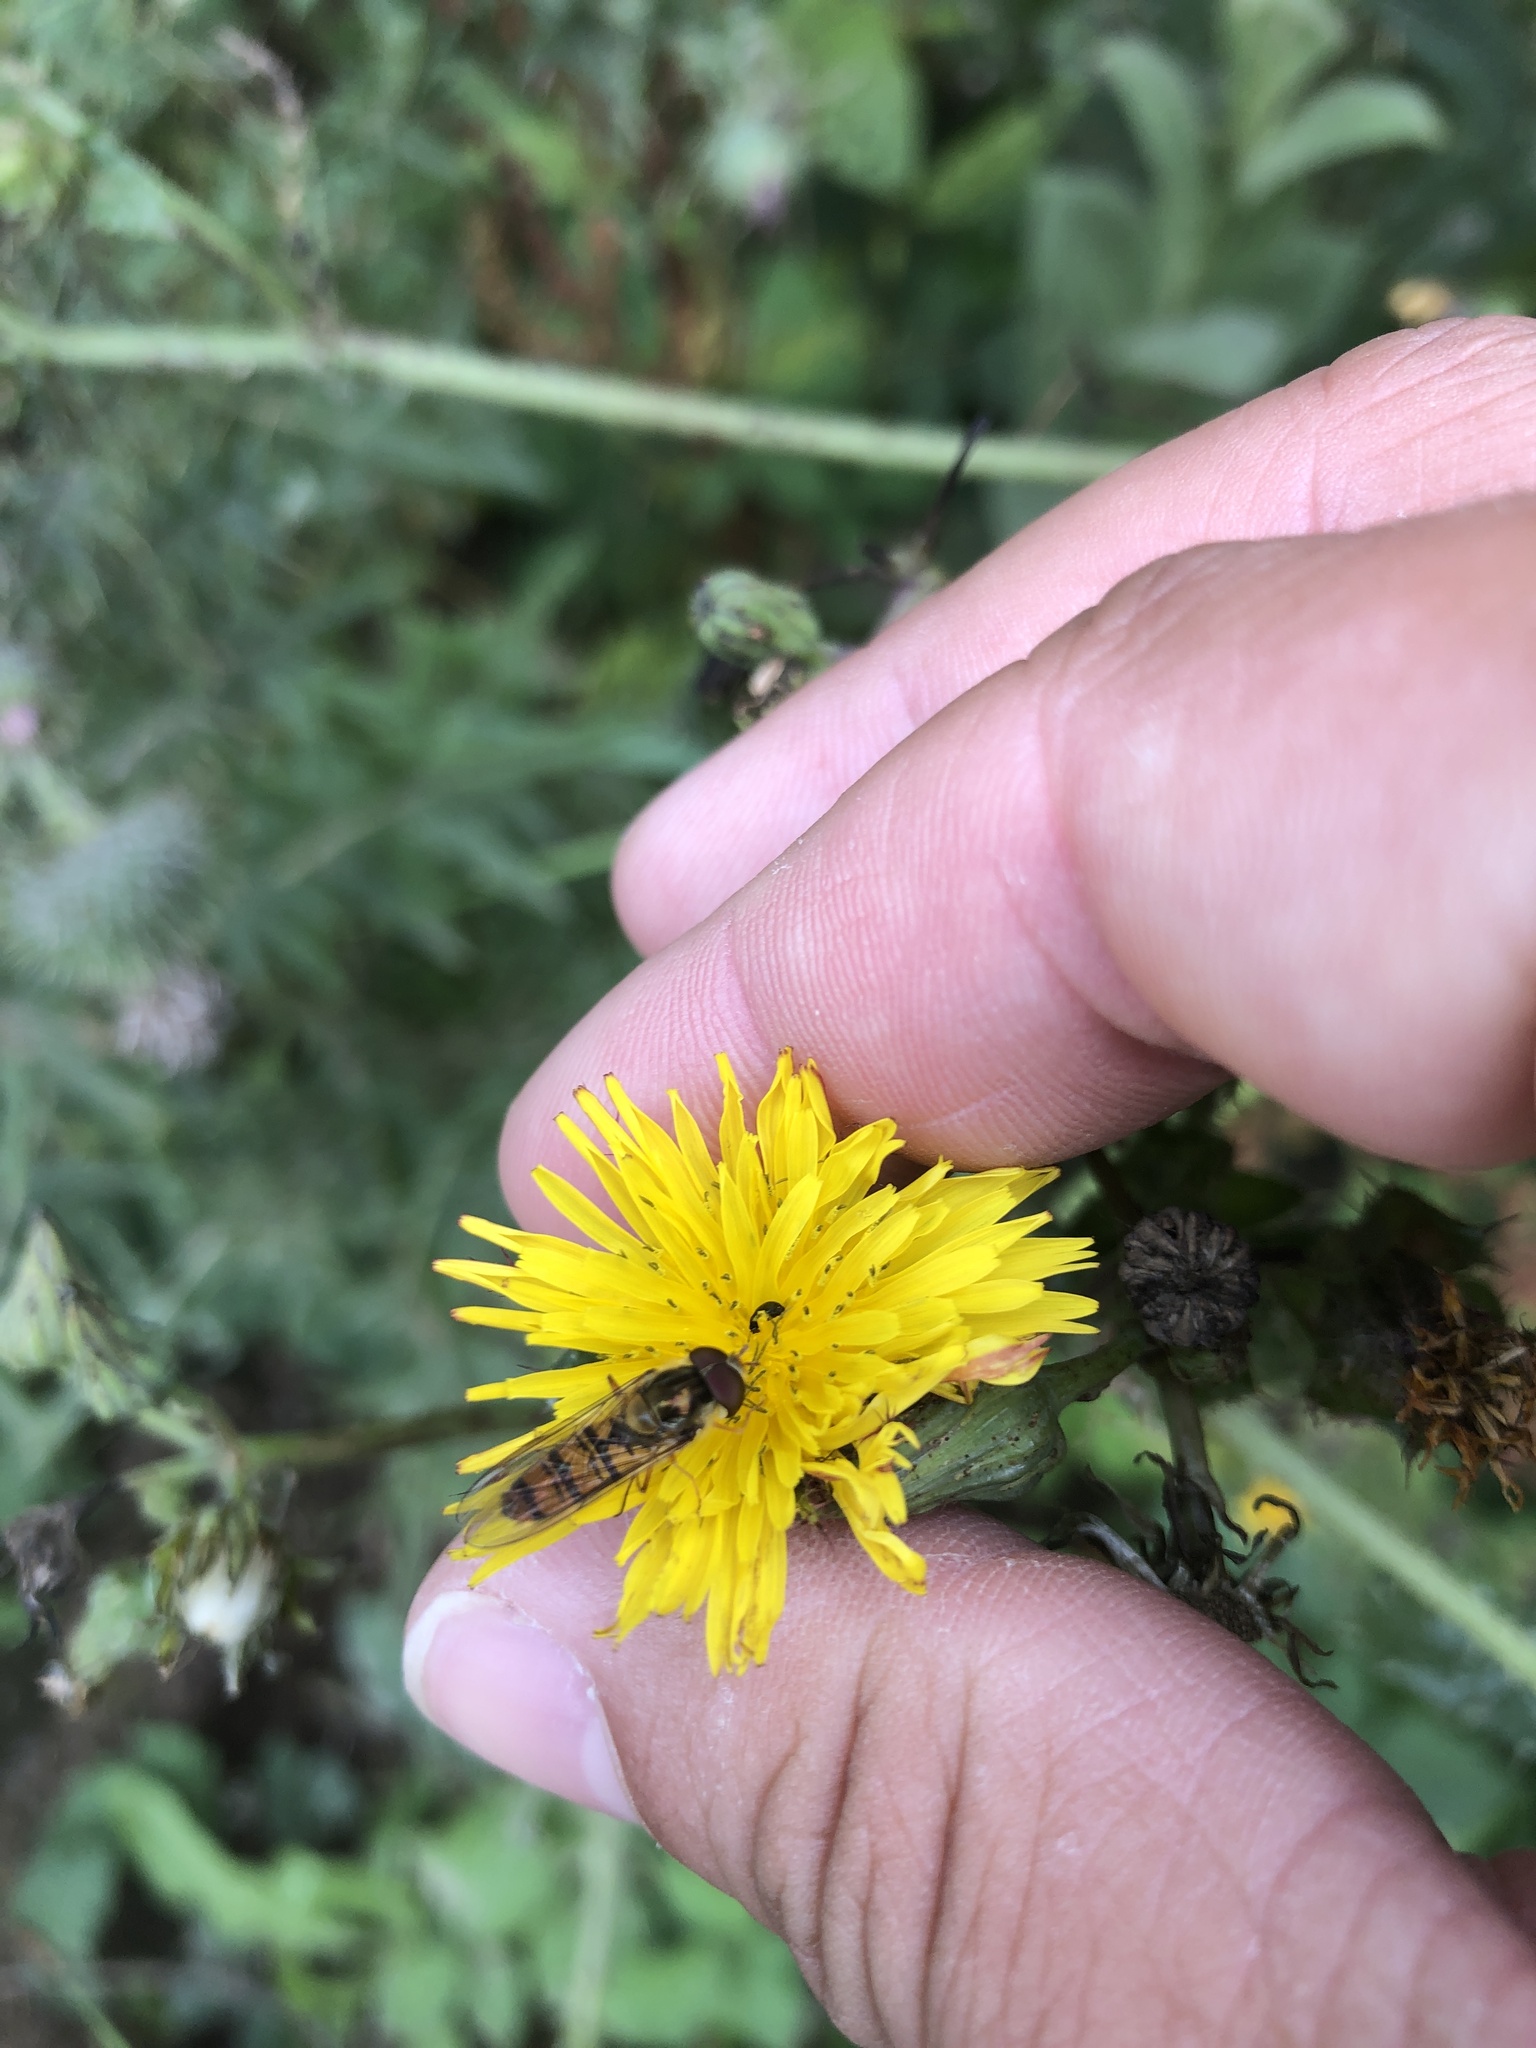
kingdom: Animalia
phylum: Arthropoda
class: Insecta
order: Diptera
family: Syrphidae
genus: Episyrphus
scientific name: Episyrphus balteatus
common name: Marmalade hoverfly
